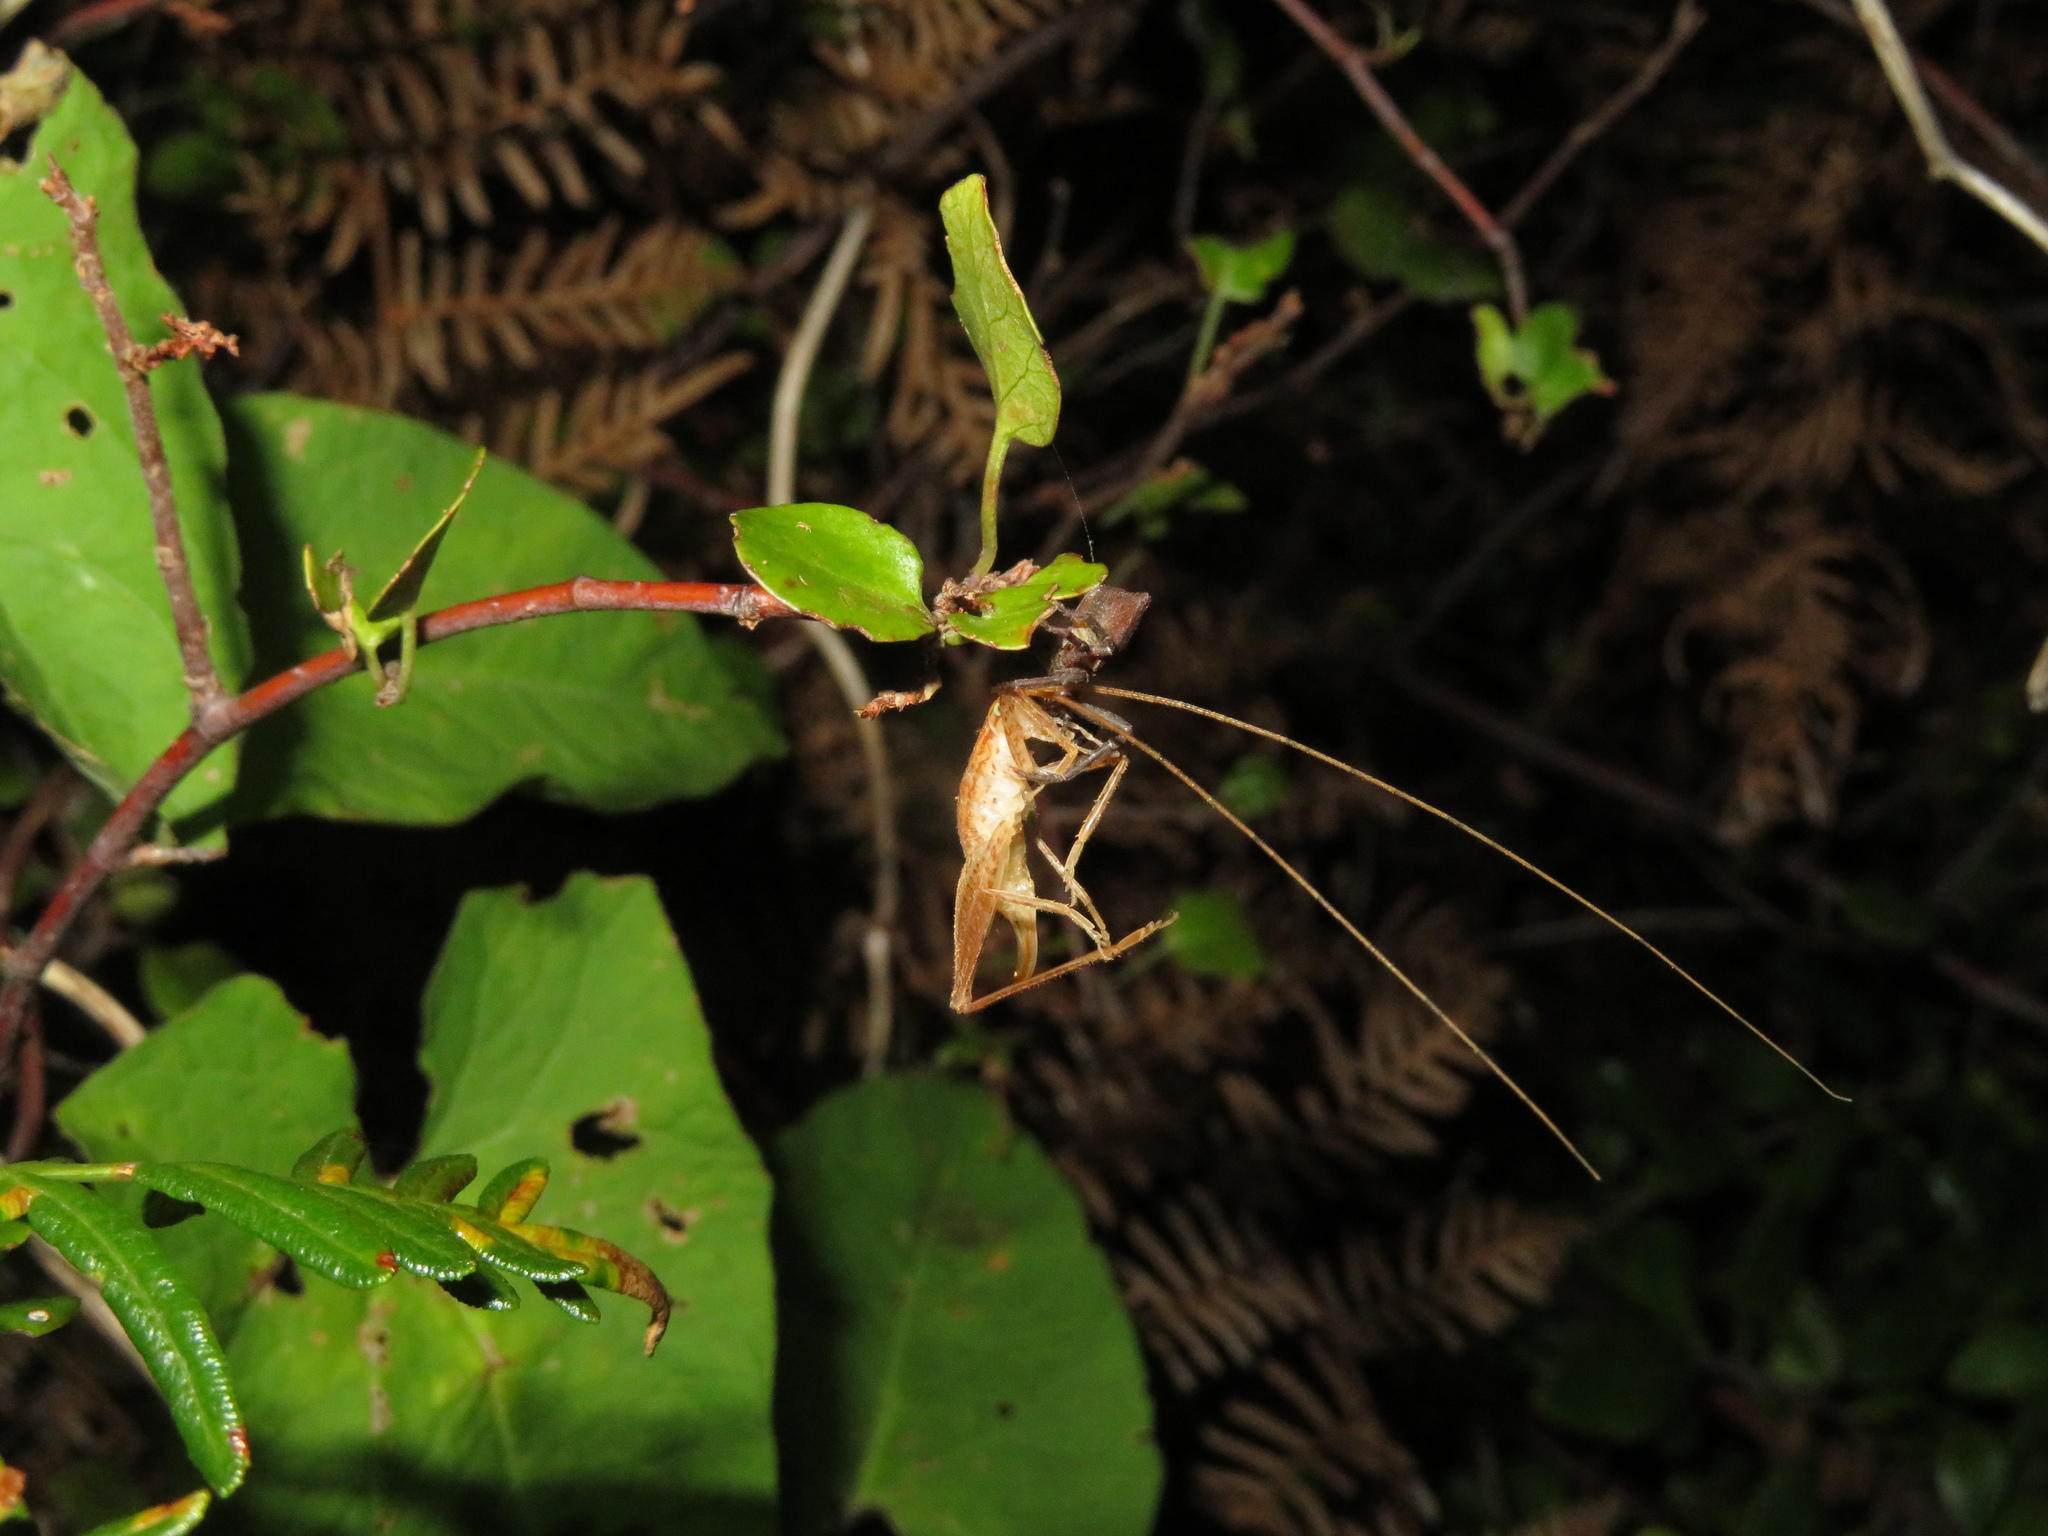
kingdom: Animalia
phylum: Arthropoda
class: Arachnida
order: Araneae
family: Thomisidae
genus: Sidymella
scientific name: Sidymella angularis
